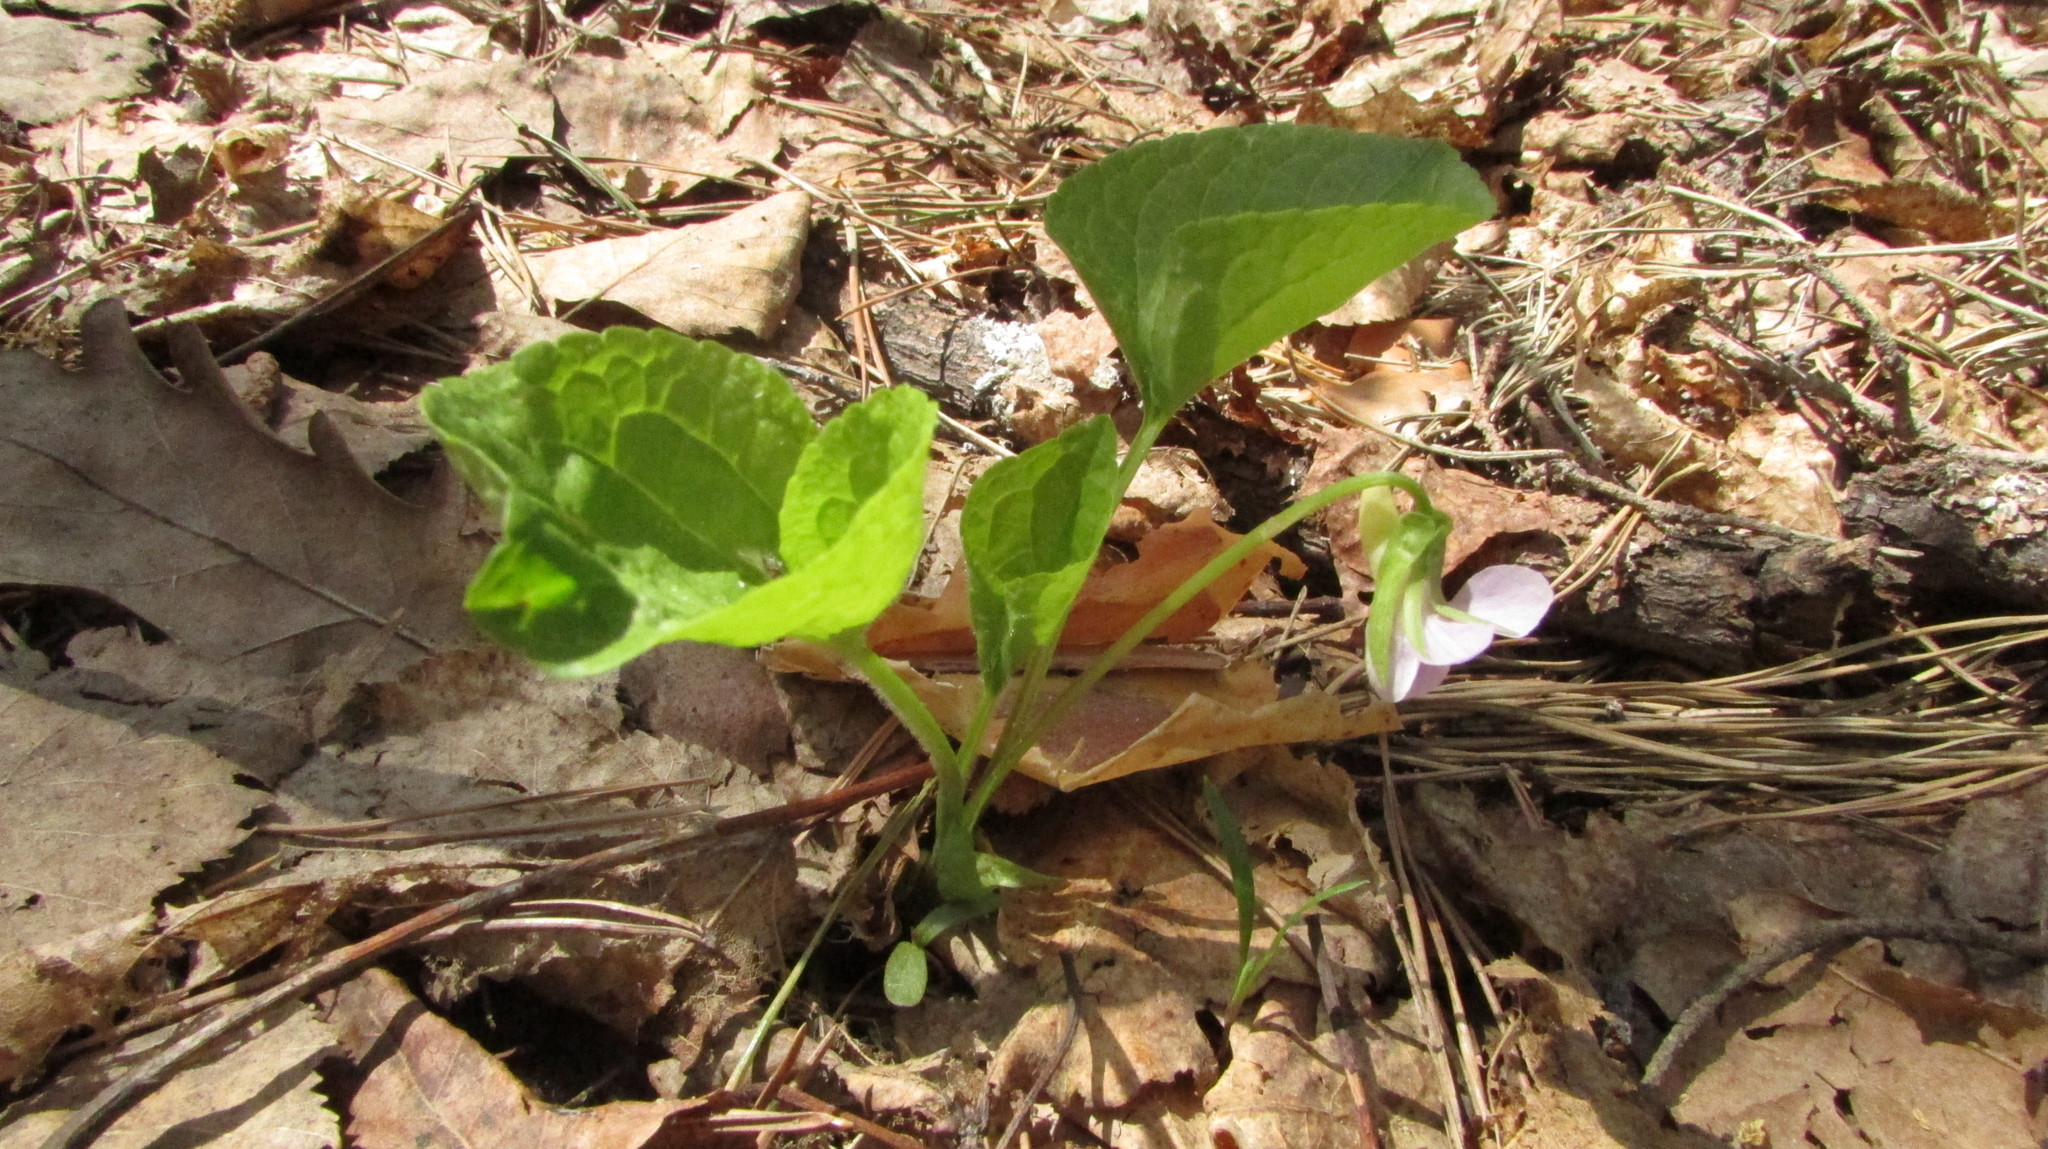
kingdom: Plantae
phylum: Tracheophyta
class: Magnoliopsida
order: Malpighiales
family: Violaceae
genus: Viola
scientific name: Viola mirabilis
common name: Wonder violet
